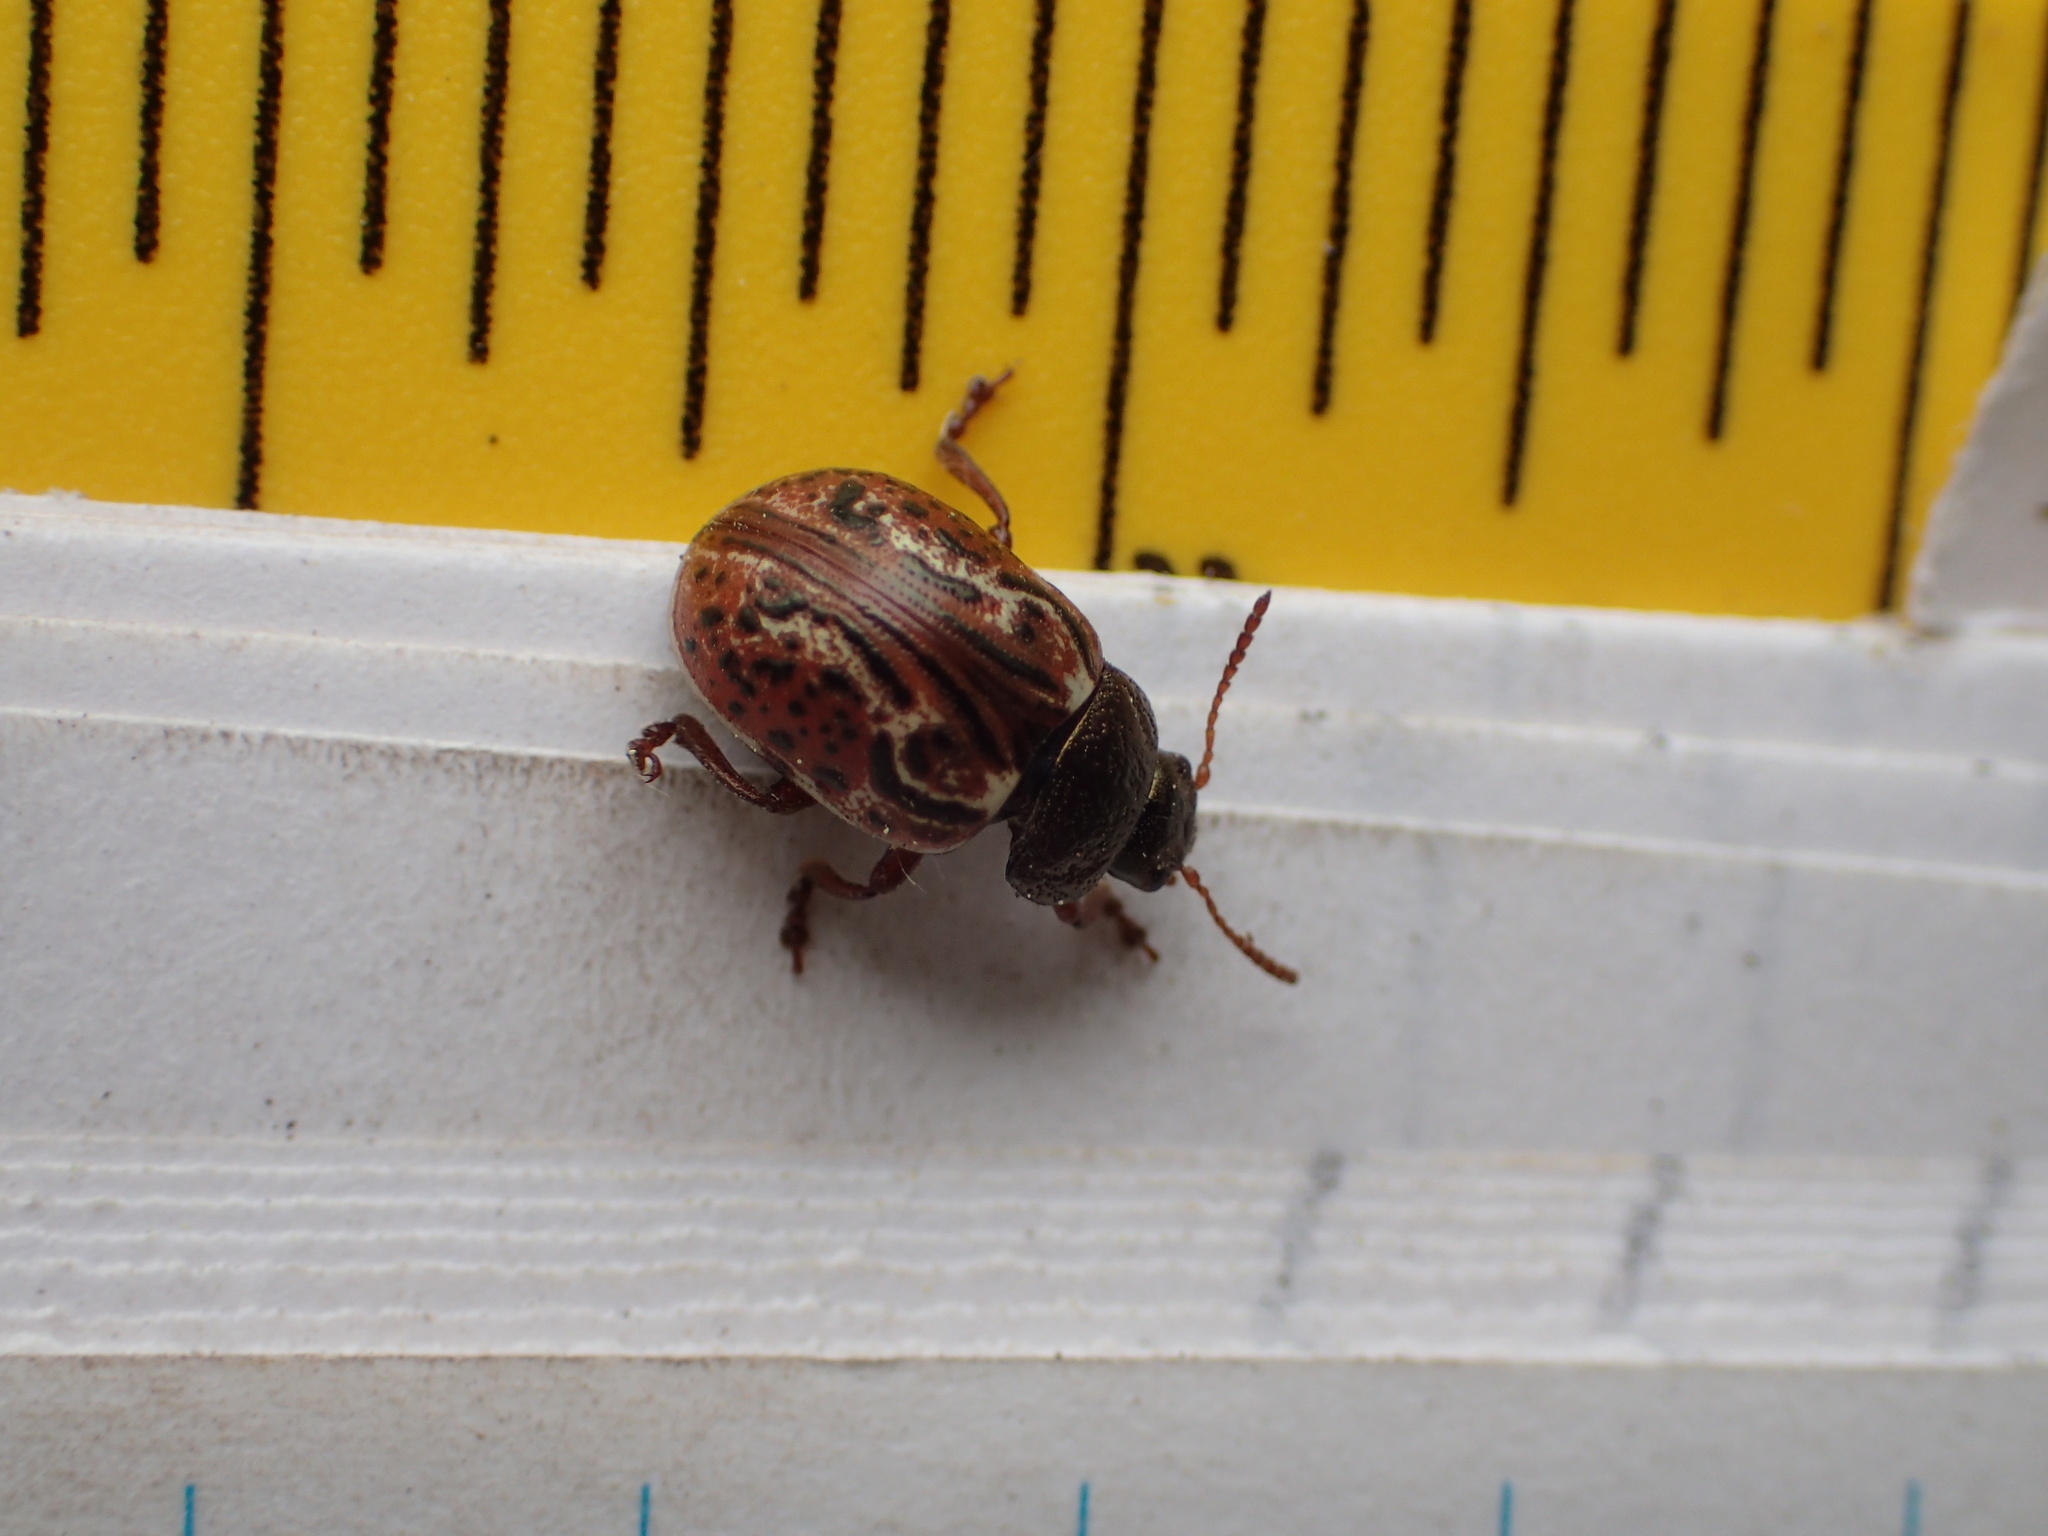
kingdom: Animalia
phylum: Arthropoda
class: Insecta
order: Coleoptera
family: Chrysomelidae
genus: Calligrapha
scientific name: Calligrapha alni
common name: Russet alder leaf beetle
